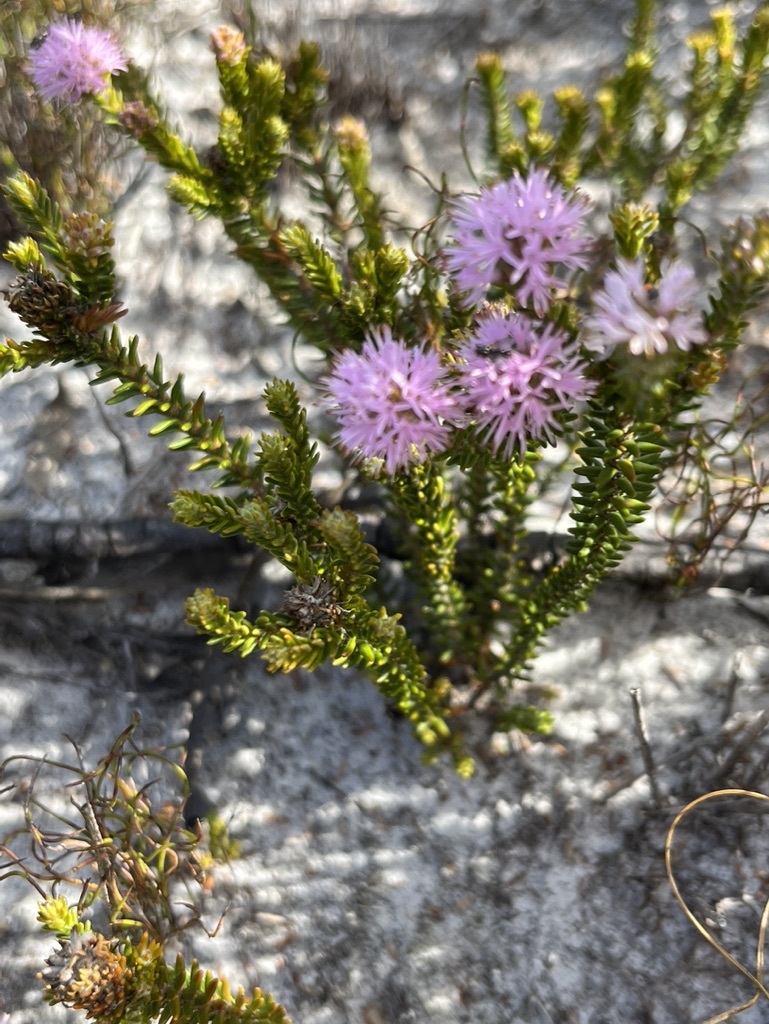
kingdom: Plantae
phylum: Tracheophyta
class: Magnoliopsida
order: Lamiales
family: Stilbaceae
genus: Stilbe
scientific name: Stilbe ericoides
